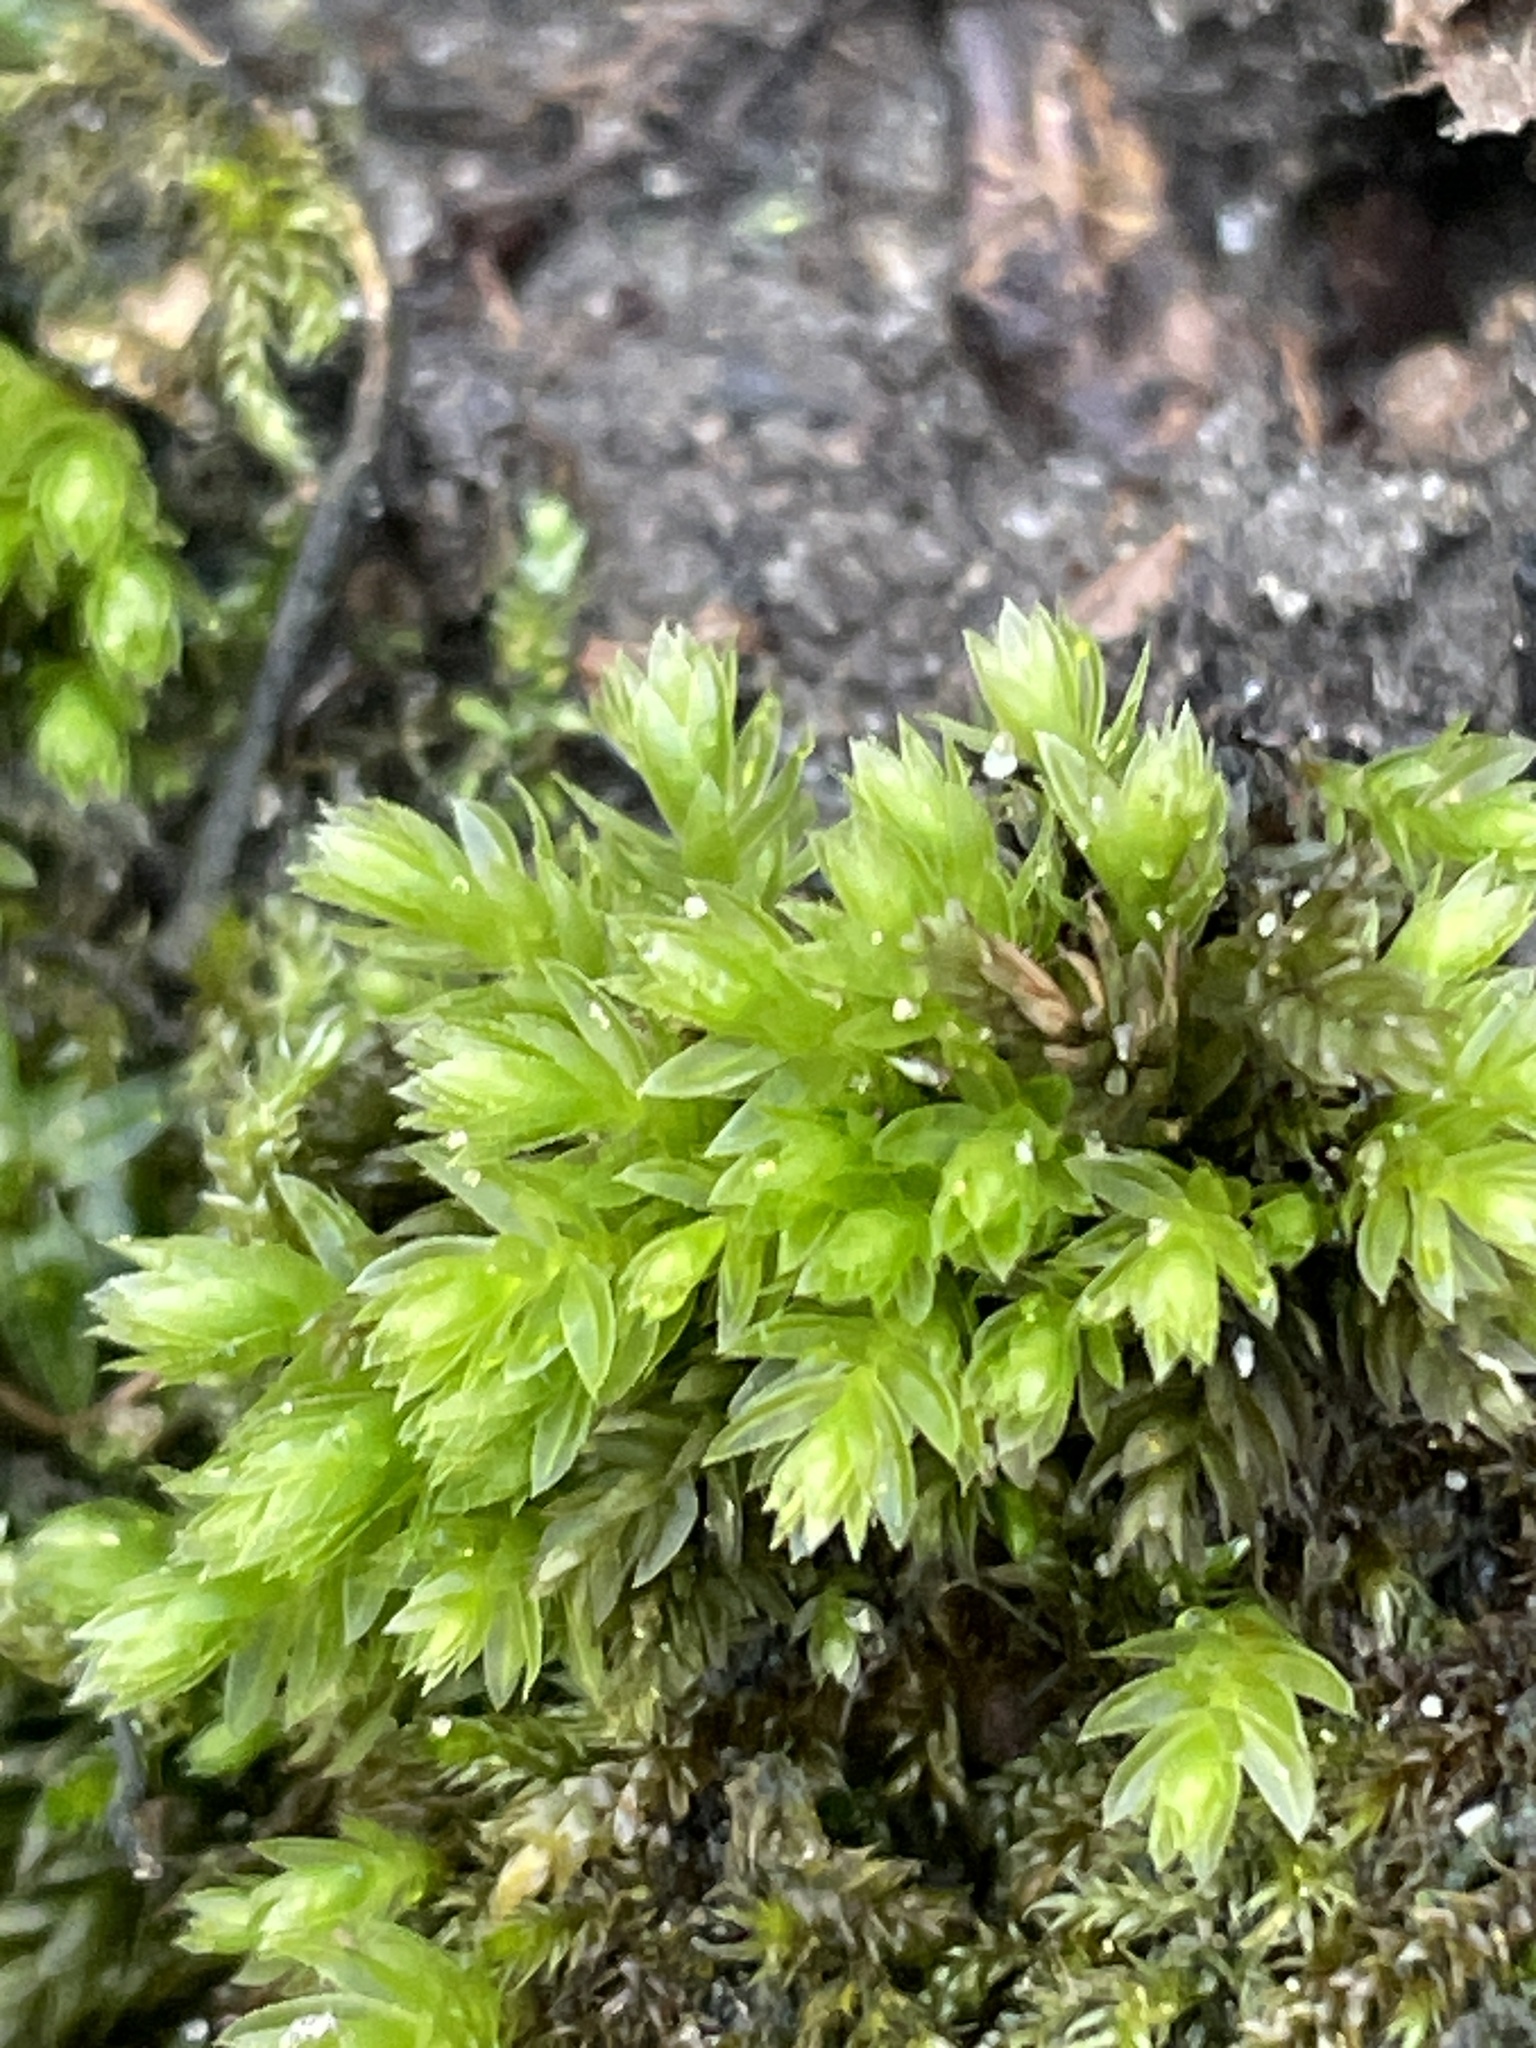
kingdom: Plantae
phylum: Bryophyta
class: Bryopsida
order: Bryales
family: Mniaceae
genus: Mnium
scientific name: Mnium hornum
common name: Swan's-neck leafy moss
